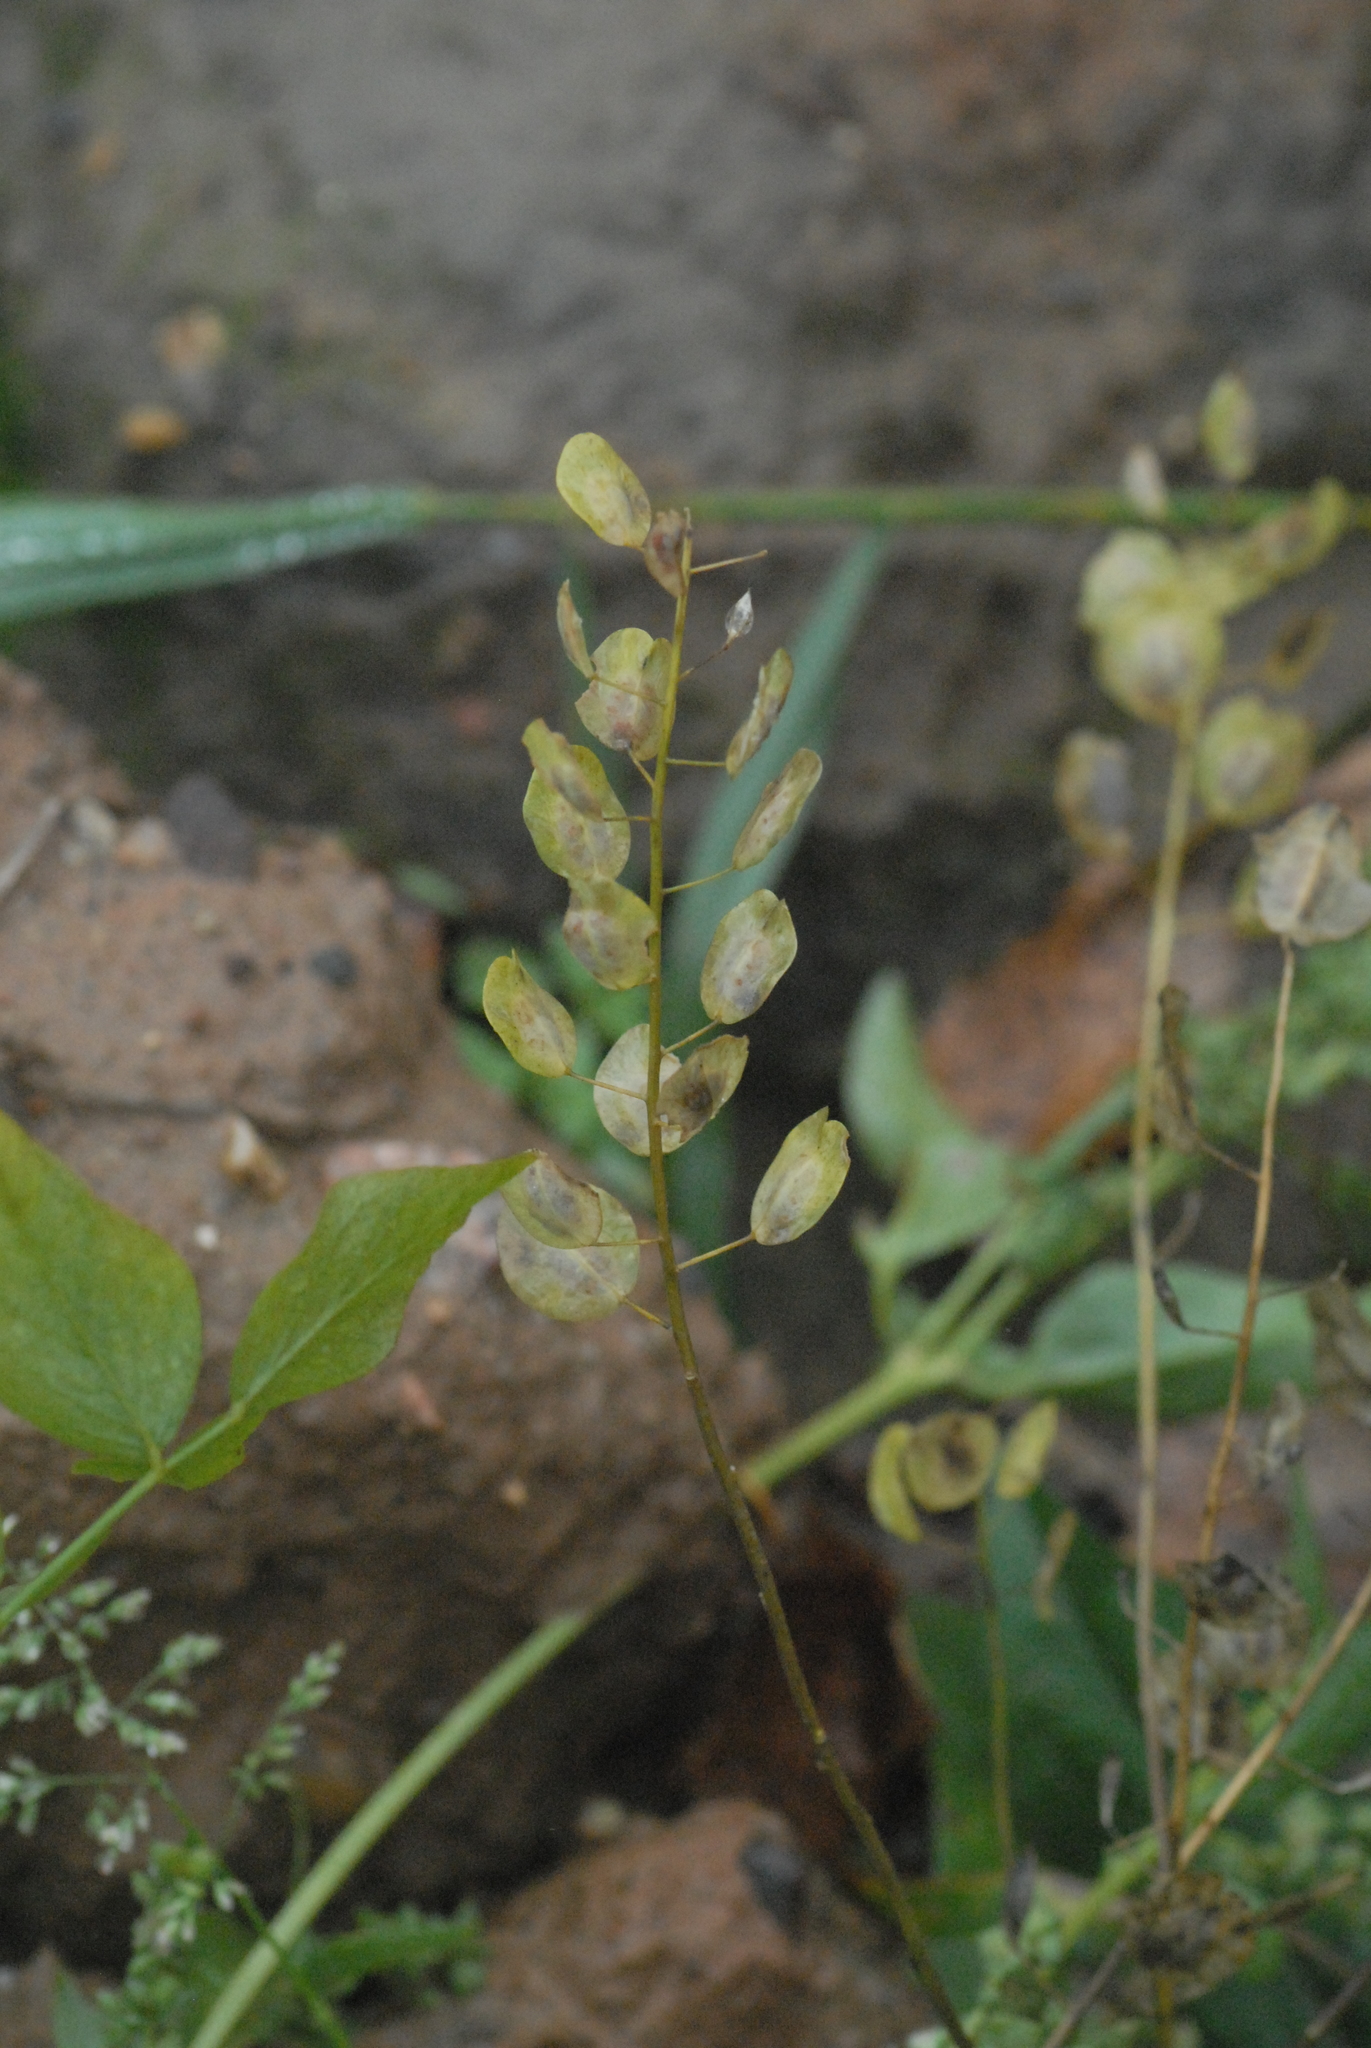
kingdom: Plantae
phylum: Tracheophyta
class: Magnoliopsida
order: Brassicales
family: Brassicaceae
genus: Thlaspi
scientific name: Thlaspi arvense
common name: Field pennycress
